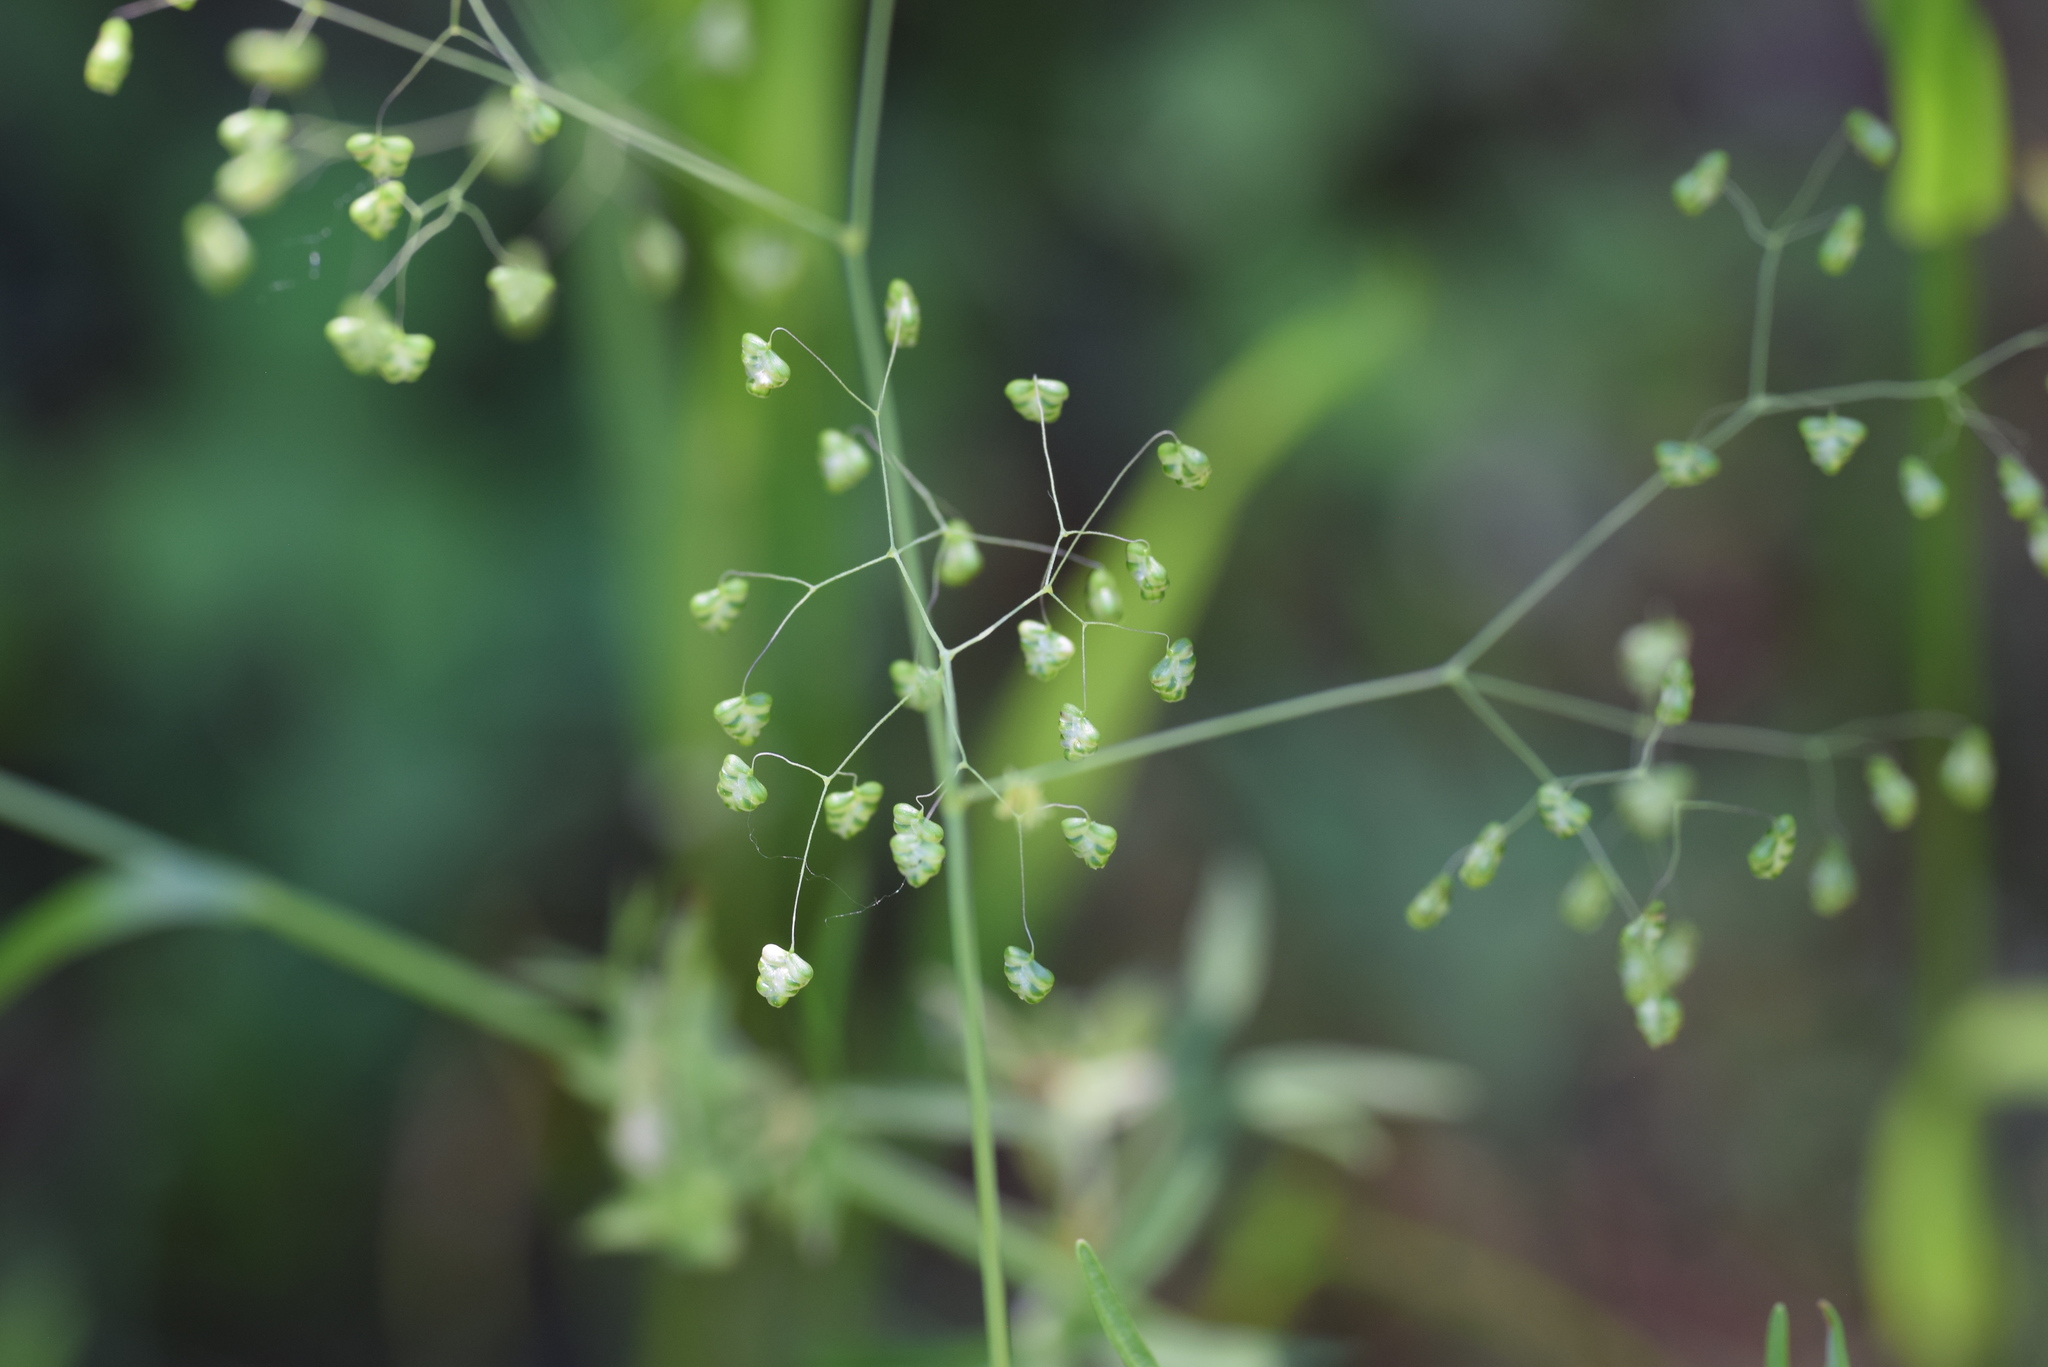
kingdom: Plantae
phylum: Tracheophyta
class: Liliopsida
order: Poales
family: Poaceae
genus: Briza
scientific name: Briza minor
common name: Lesser quaking-grass
